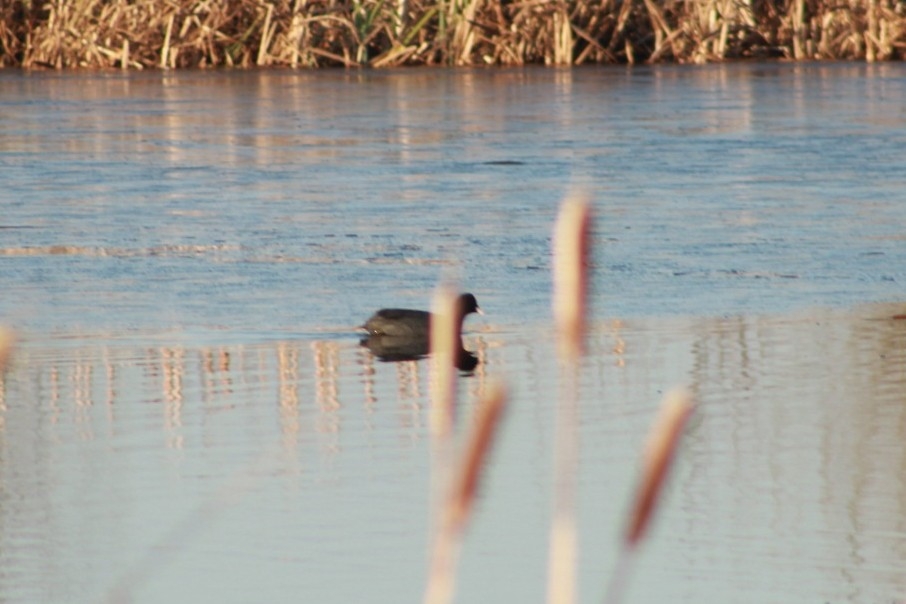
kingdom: Animalia
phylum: Chordata
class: Aves
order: Gruiformes
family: Rallidae
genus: Fulica
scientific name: Fulica atra
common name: Eurasian coot
